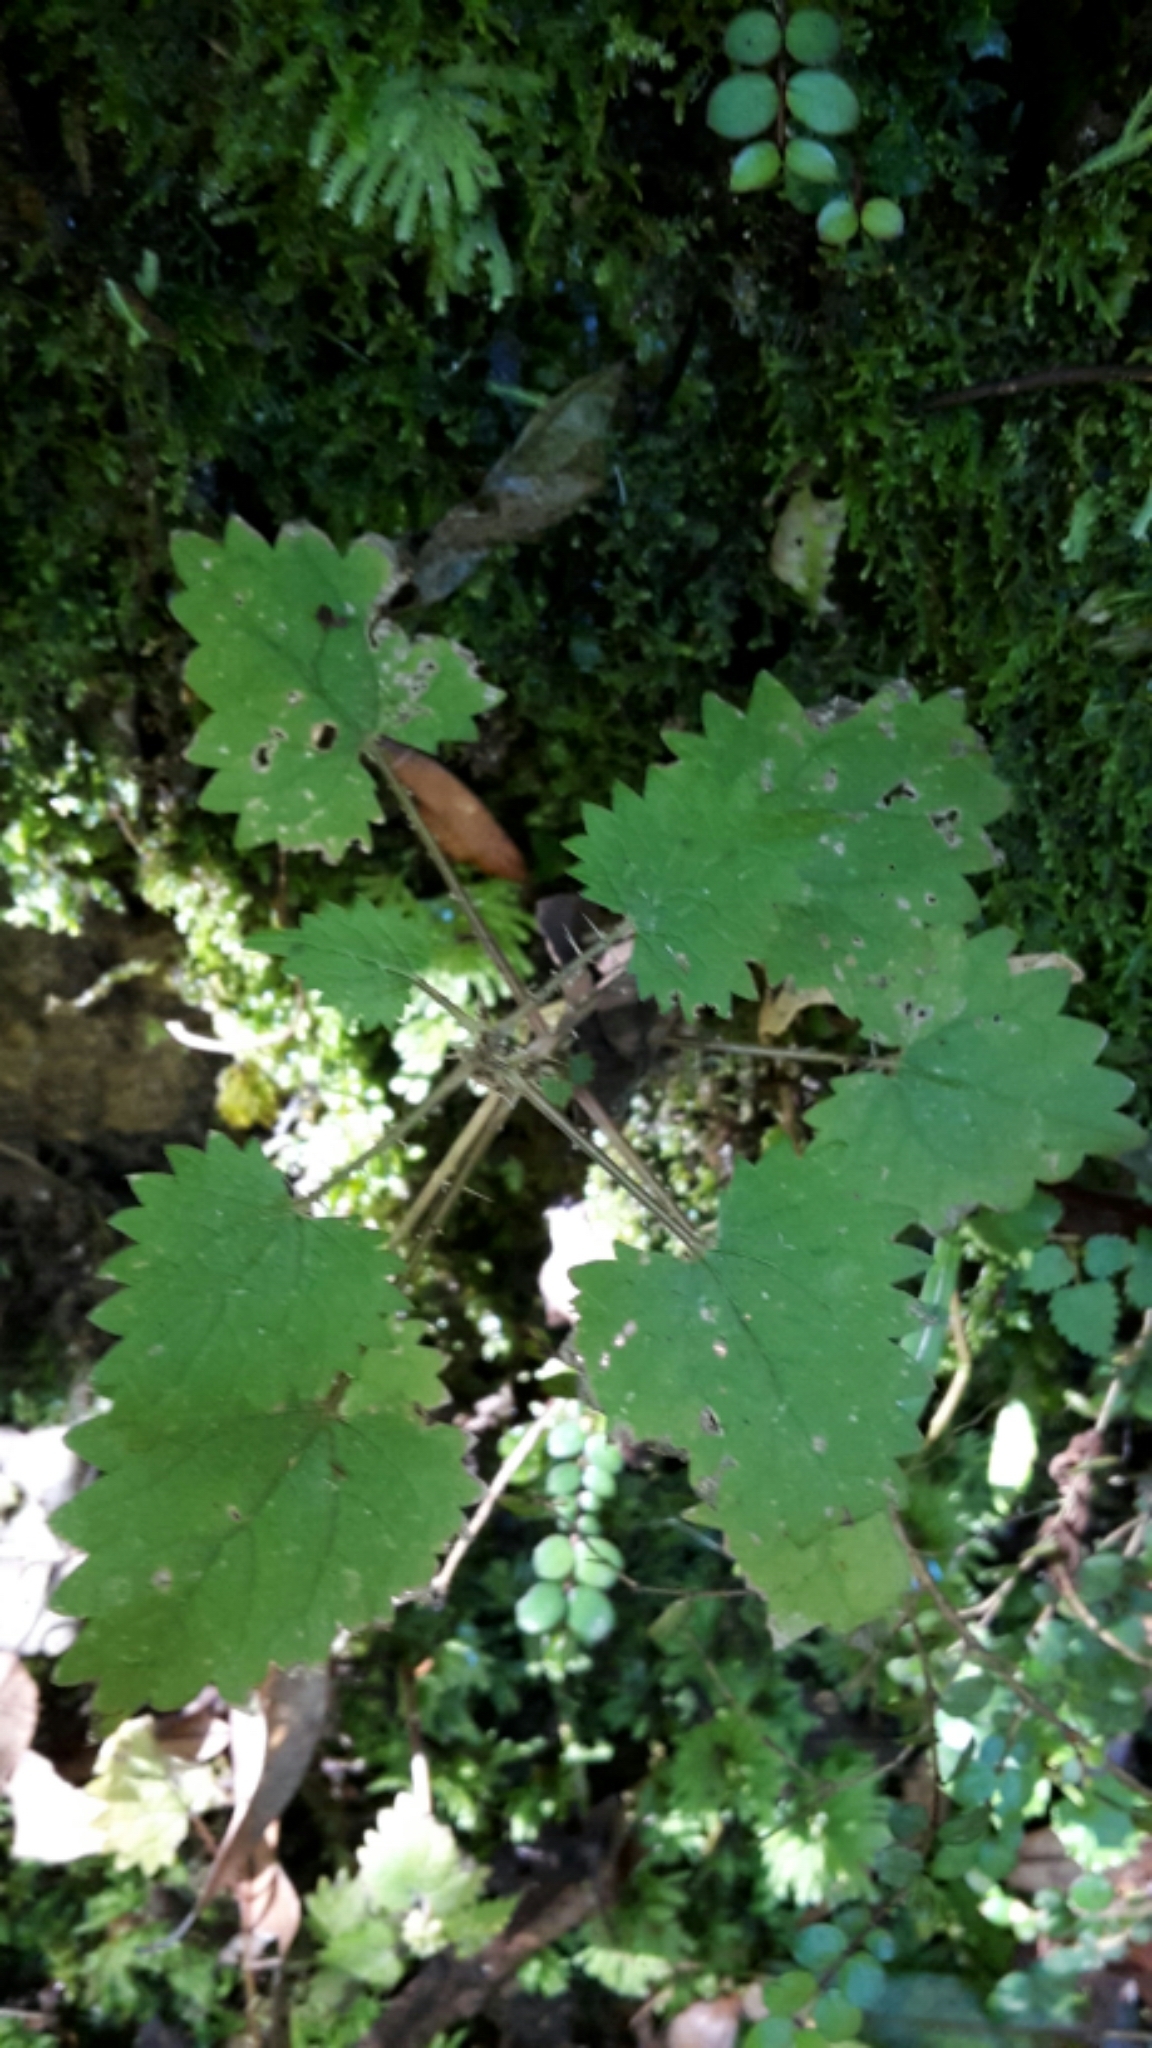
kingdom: Plantae
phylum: Tracheophyta
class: Magnoliopsida
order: Rosales
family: Urticaceae
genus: Urtica
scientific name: Urtica sykesii
